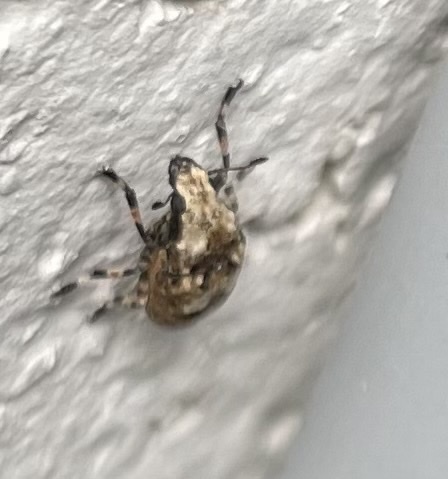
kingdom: Animalia
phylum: Arthropoda
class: Insecta
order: Coleoptera
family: Anthribidae
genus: Euparius
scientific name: Euparius marmoreus
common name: Marbled fungus weevil
